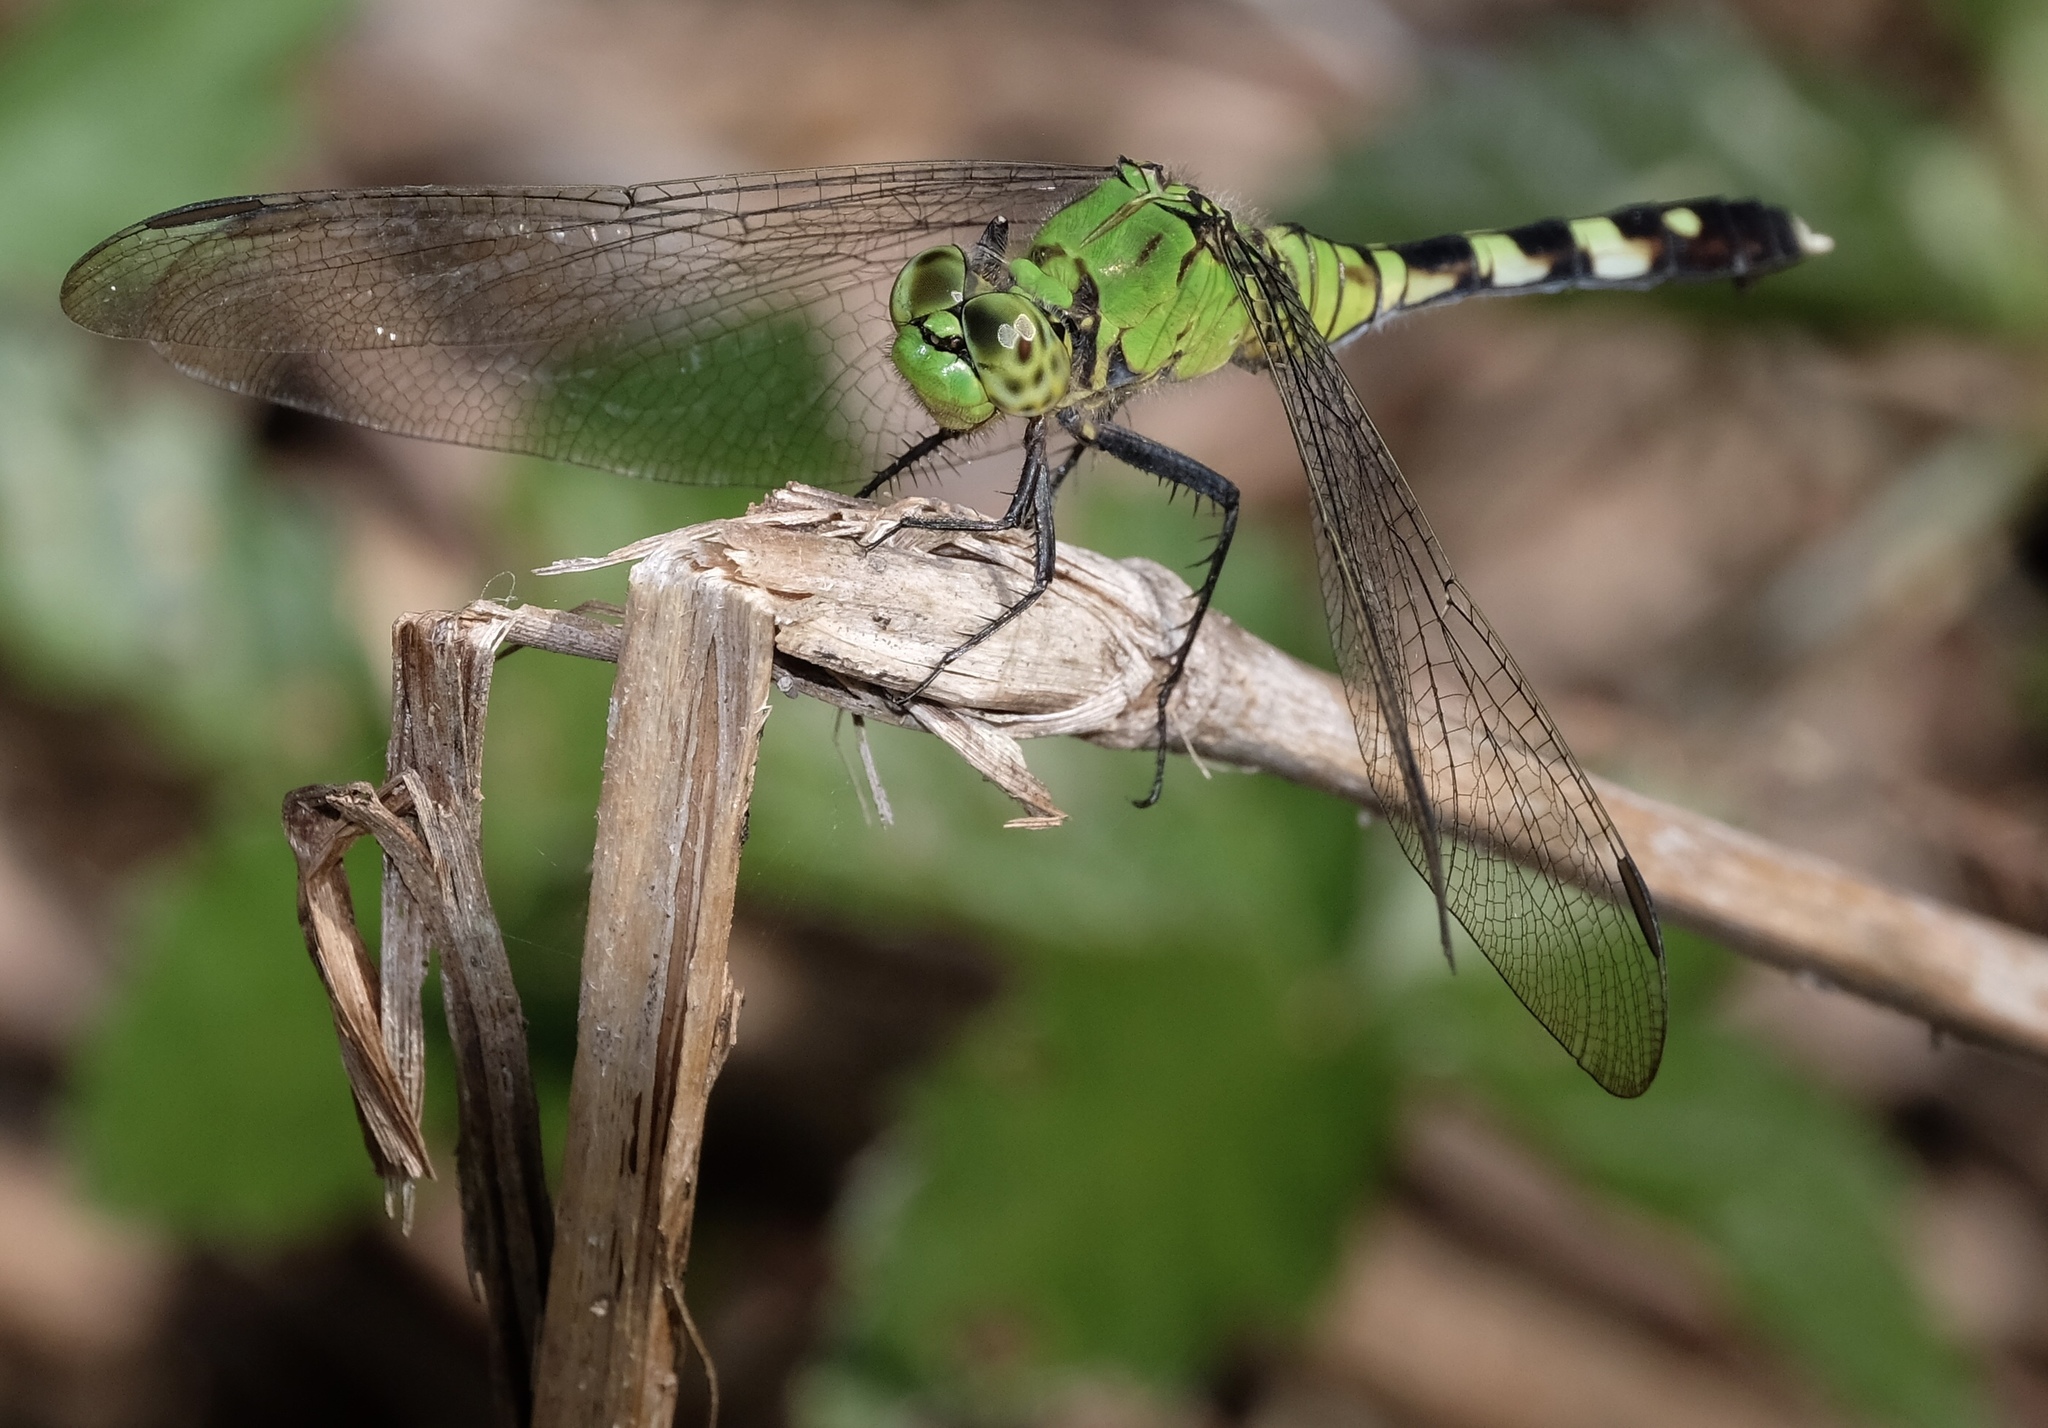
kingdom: Animalia
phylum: Arthropoda
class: Insecta
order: Odonata
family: Libellulidae
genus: Erythemis
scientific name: Erythemis simplicicollis
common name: Eastern pondhawk
